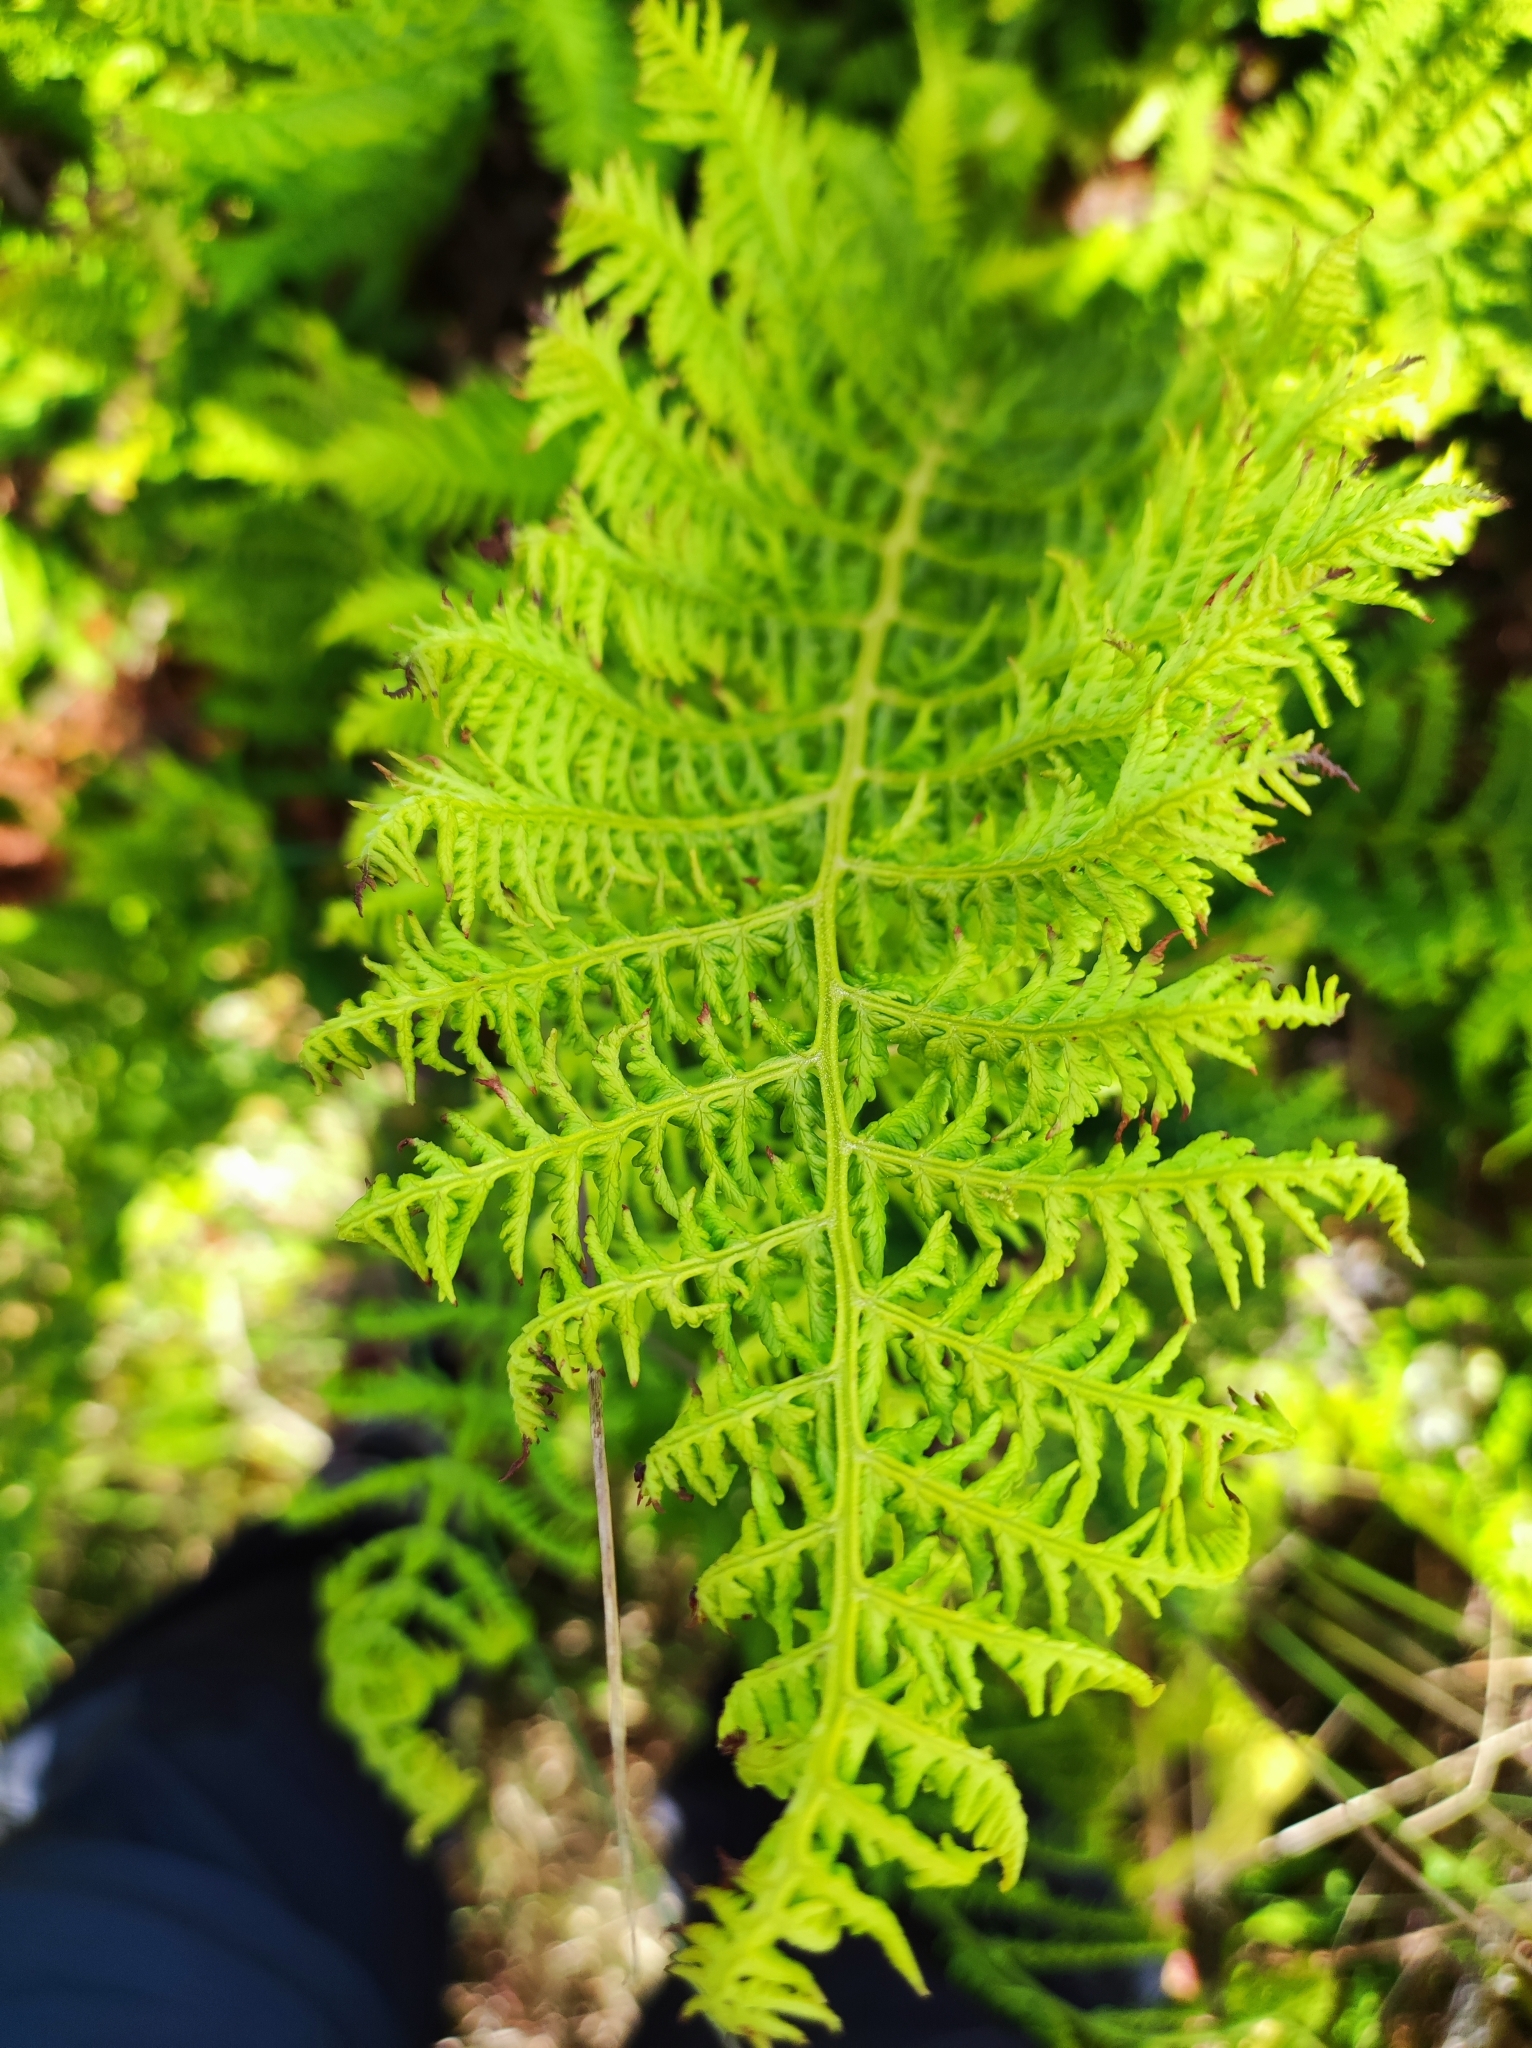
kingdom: Plantae
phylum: Tracheophyta
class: Polypodiopsida
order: Polypodiales
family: Dennstaedtiaceae
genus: Pteridium
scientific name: Pteridium aquilinum
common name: Bracken
